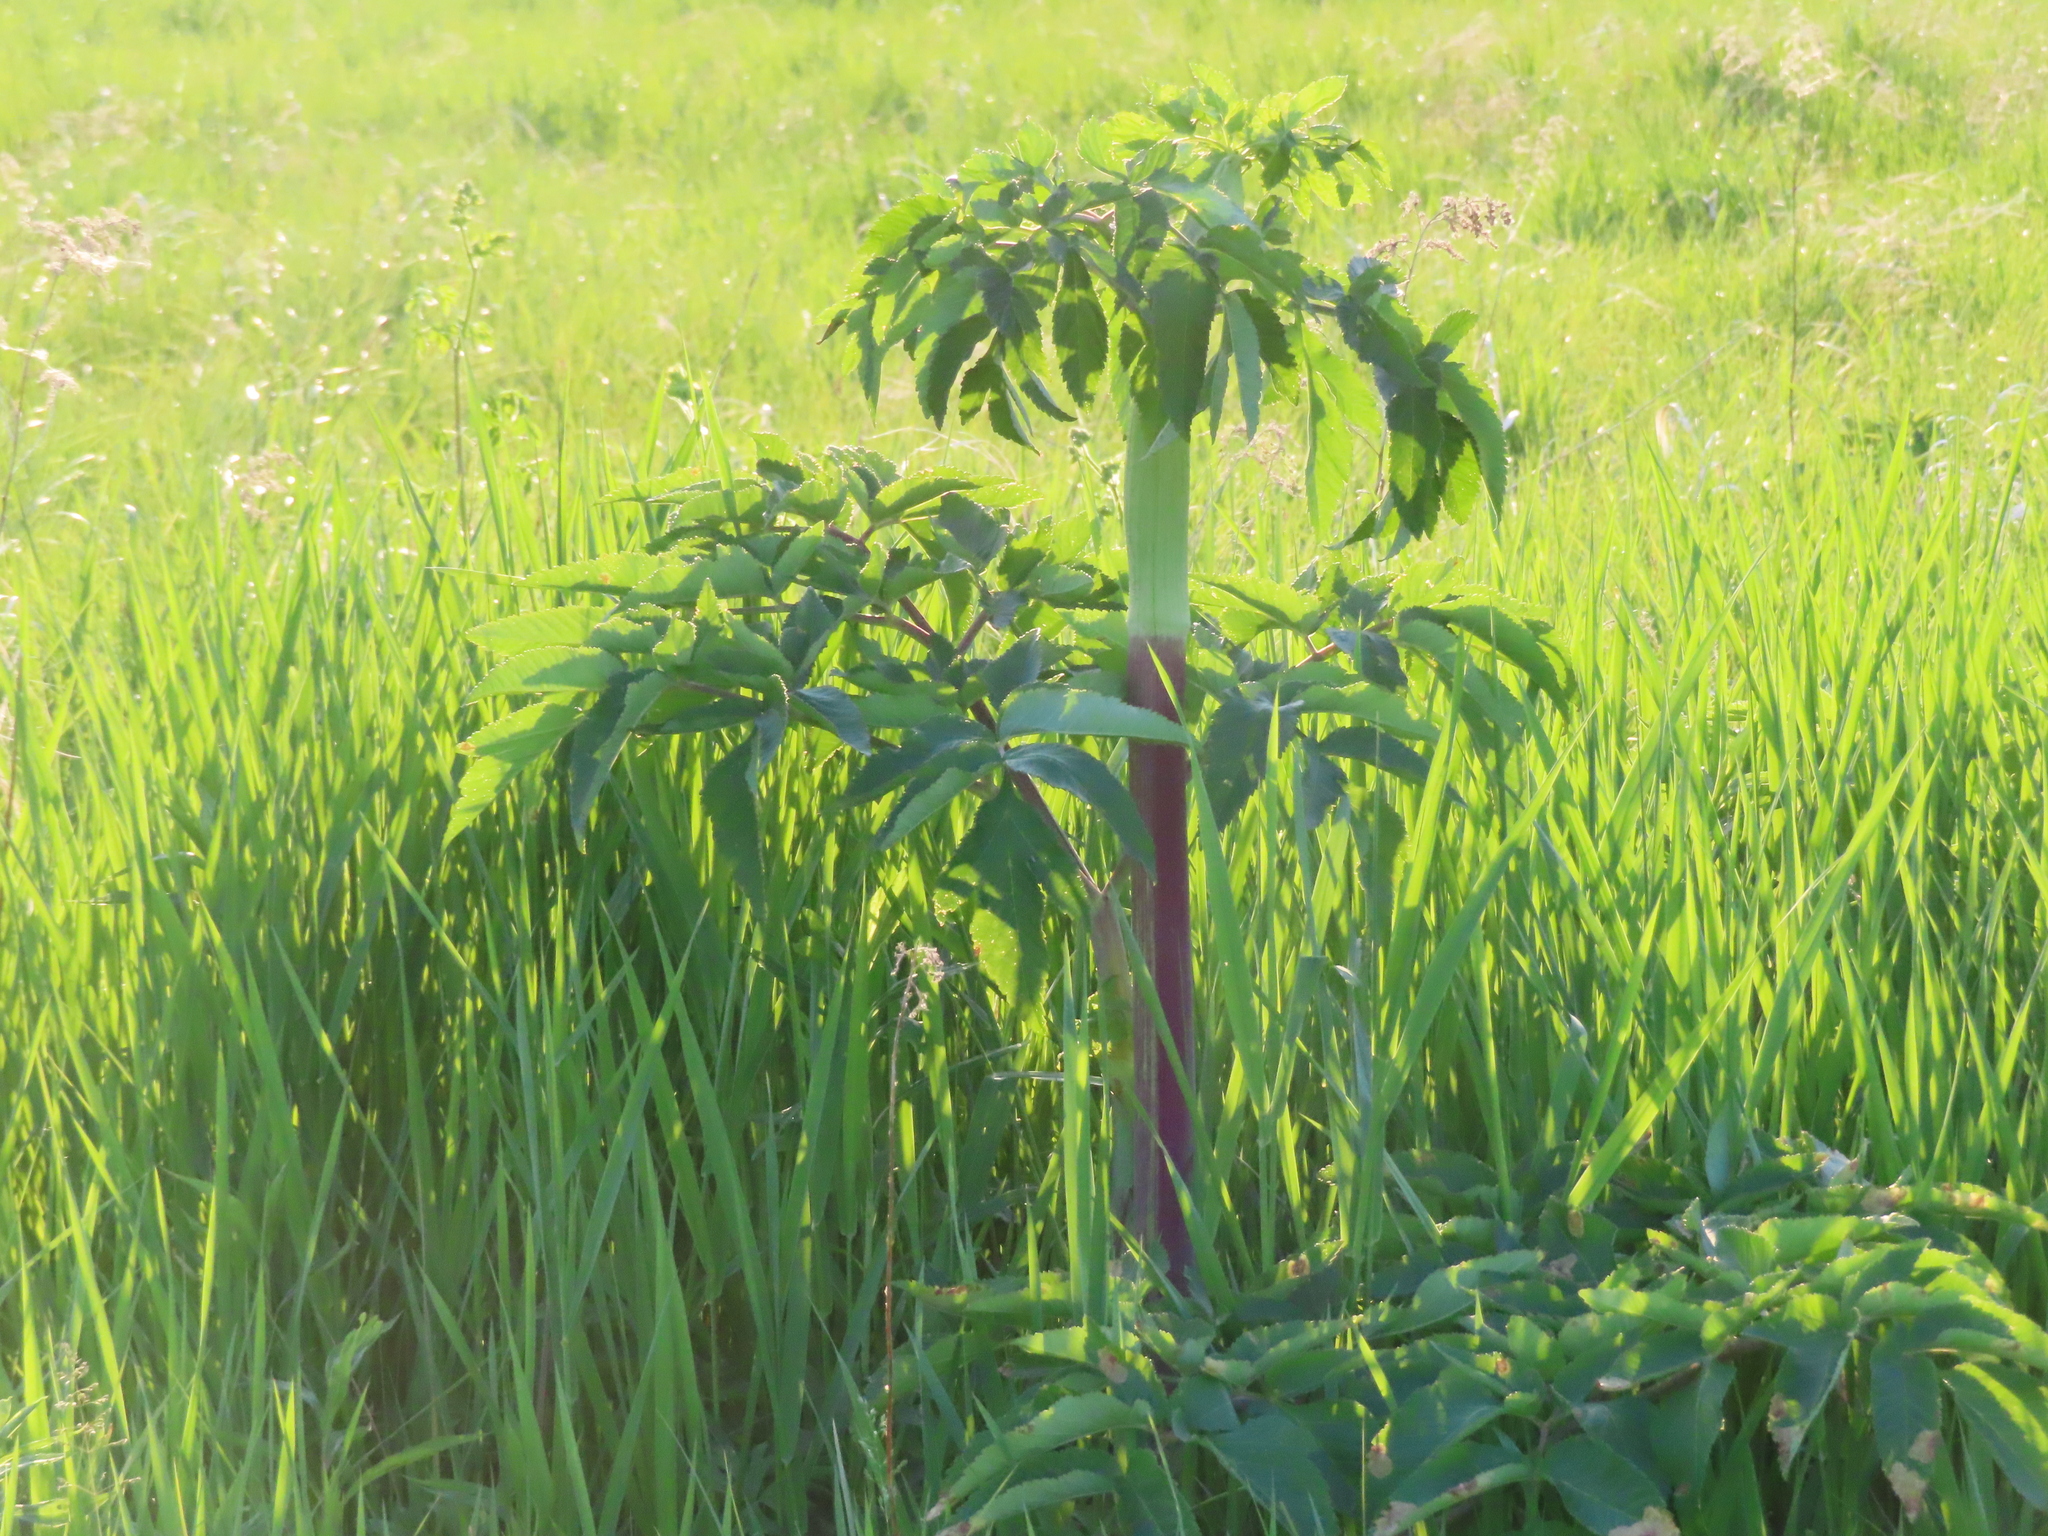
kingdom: Plantae
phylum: Tracheophyta
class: Magnoliopsida
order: Apiales
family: Apiaceae
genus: Angelica
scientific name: Angelica atropurpurea
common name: Great angelica
